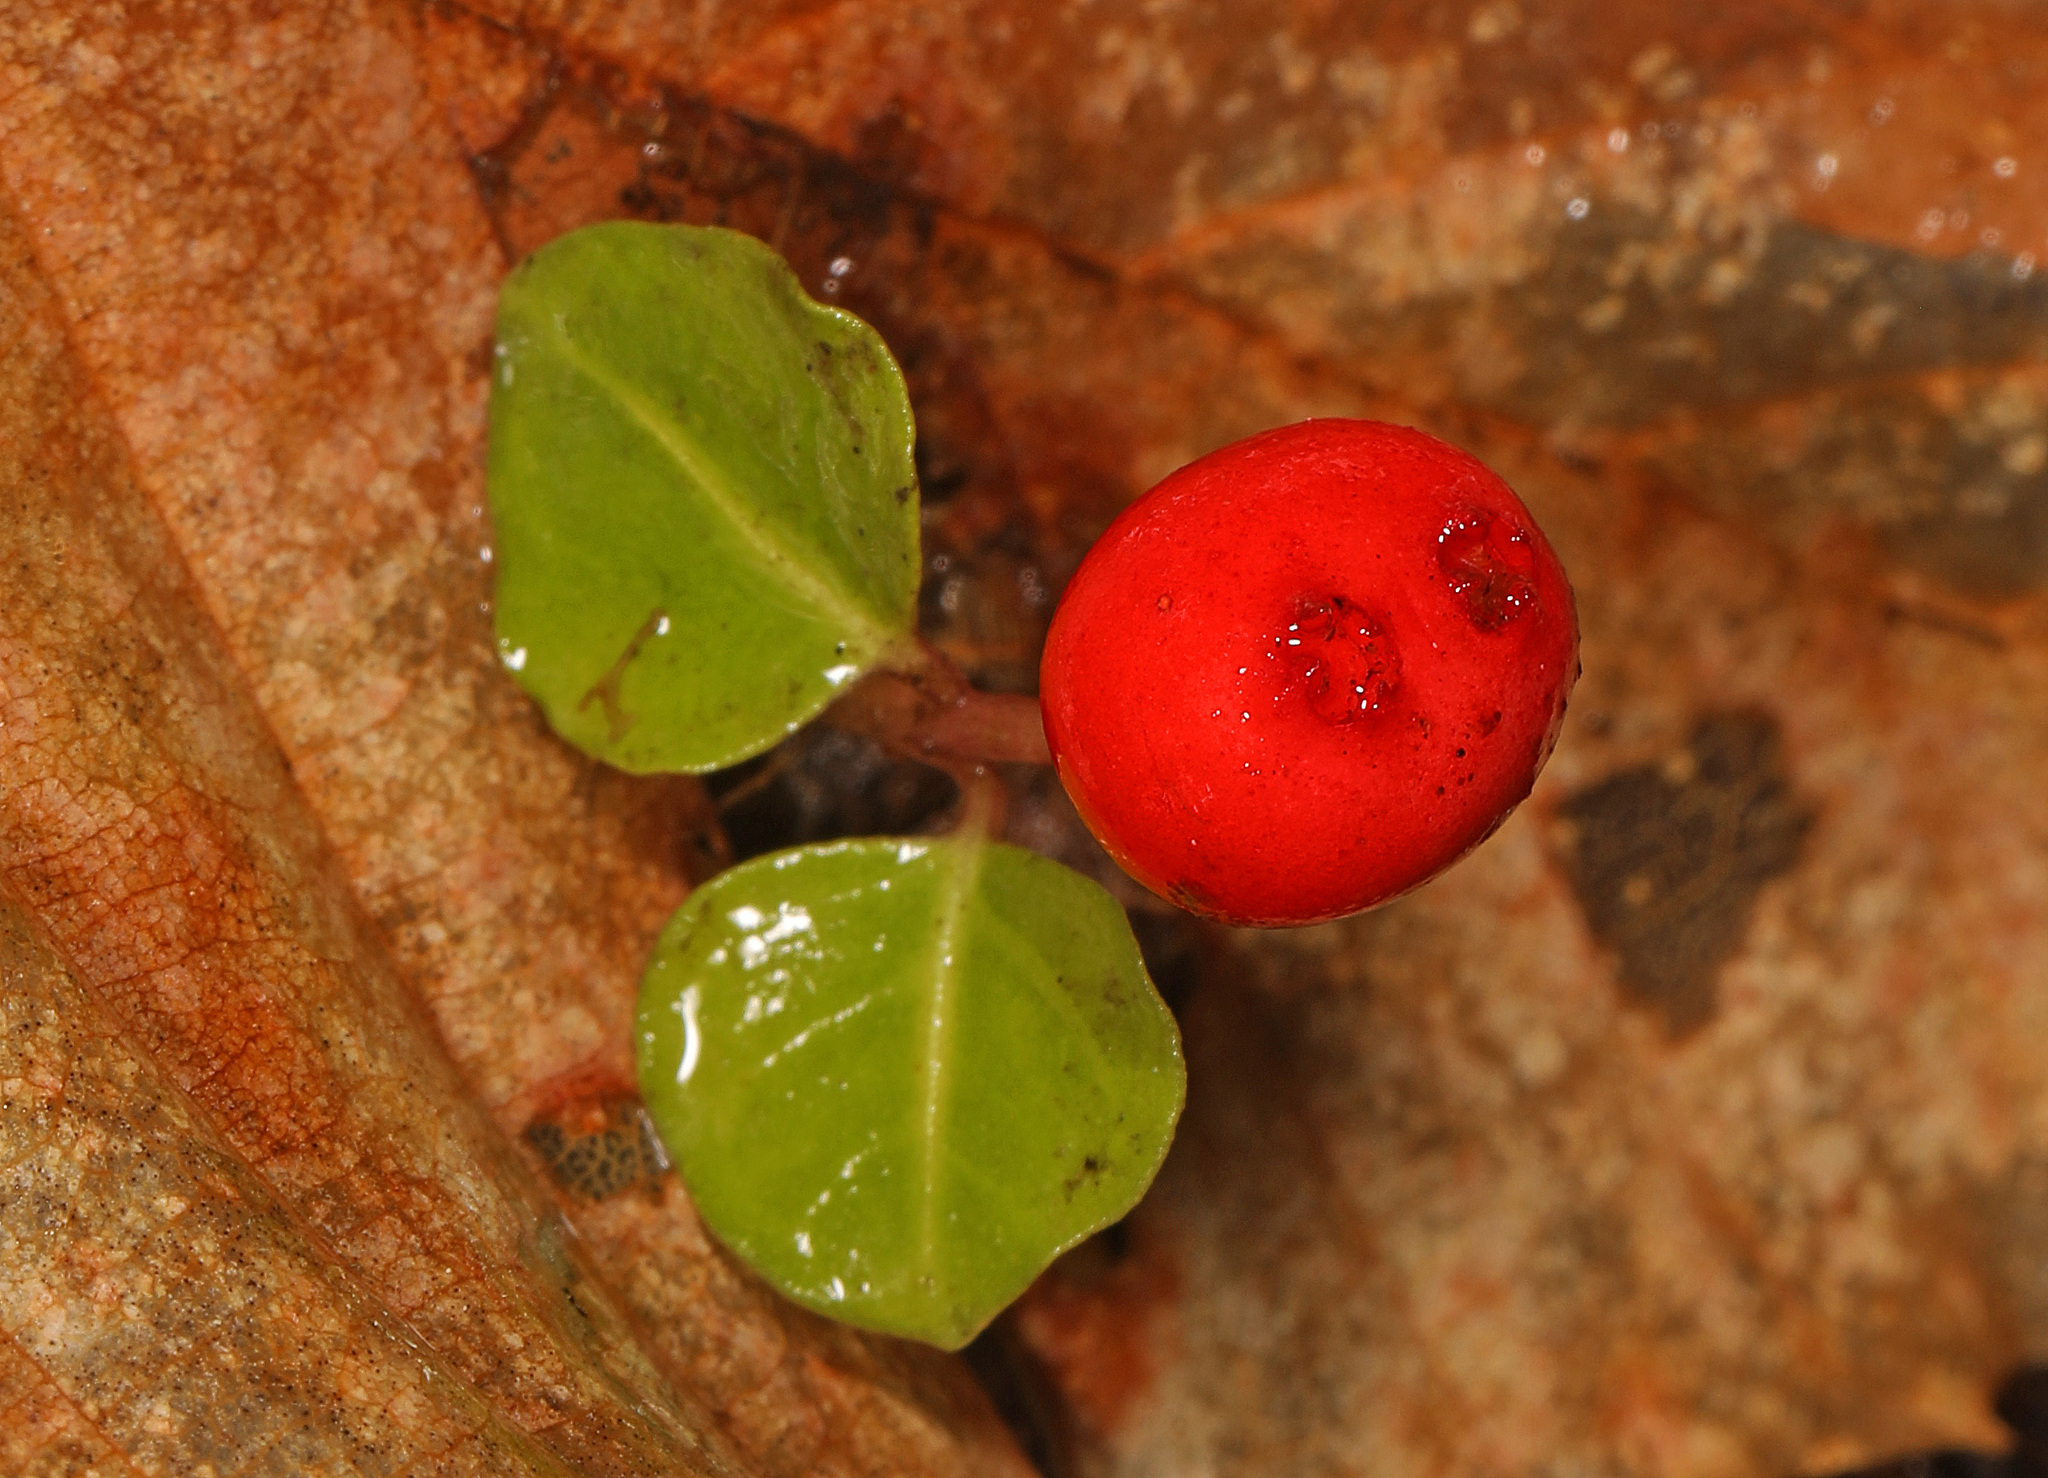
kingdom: Plantae
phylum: Tracheophyta
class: Magnoliopsida
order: Gentianales
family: Rubiaceae
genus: Mitchella
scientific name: Mitchella repens
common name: Partridge-berry
